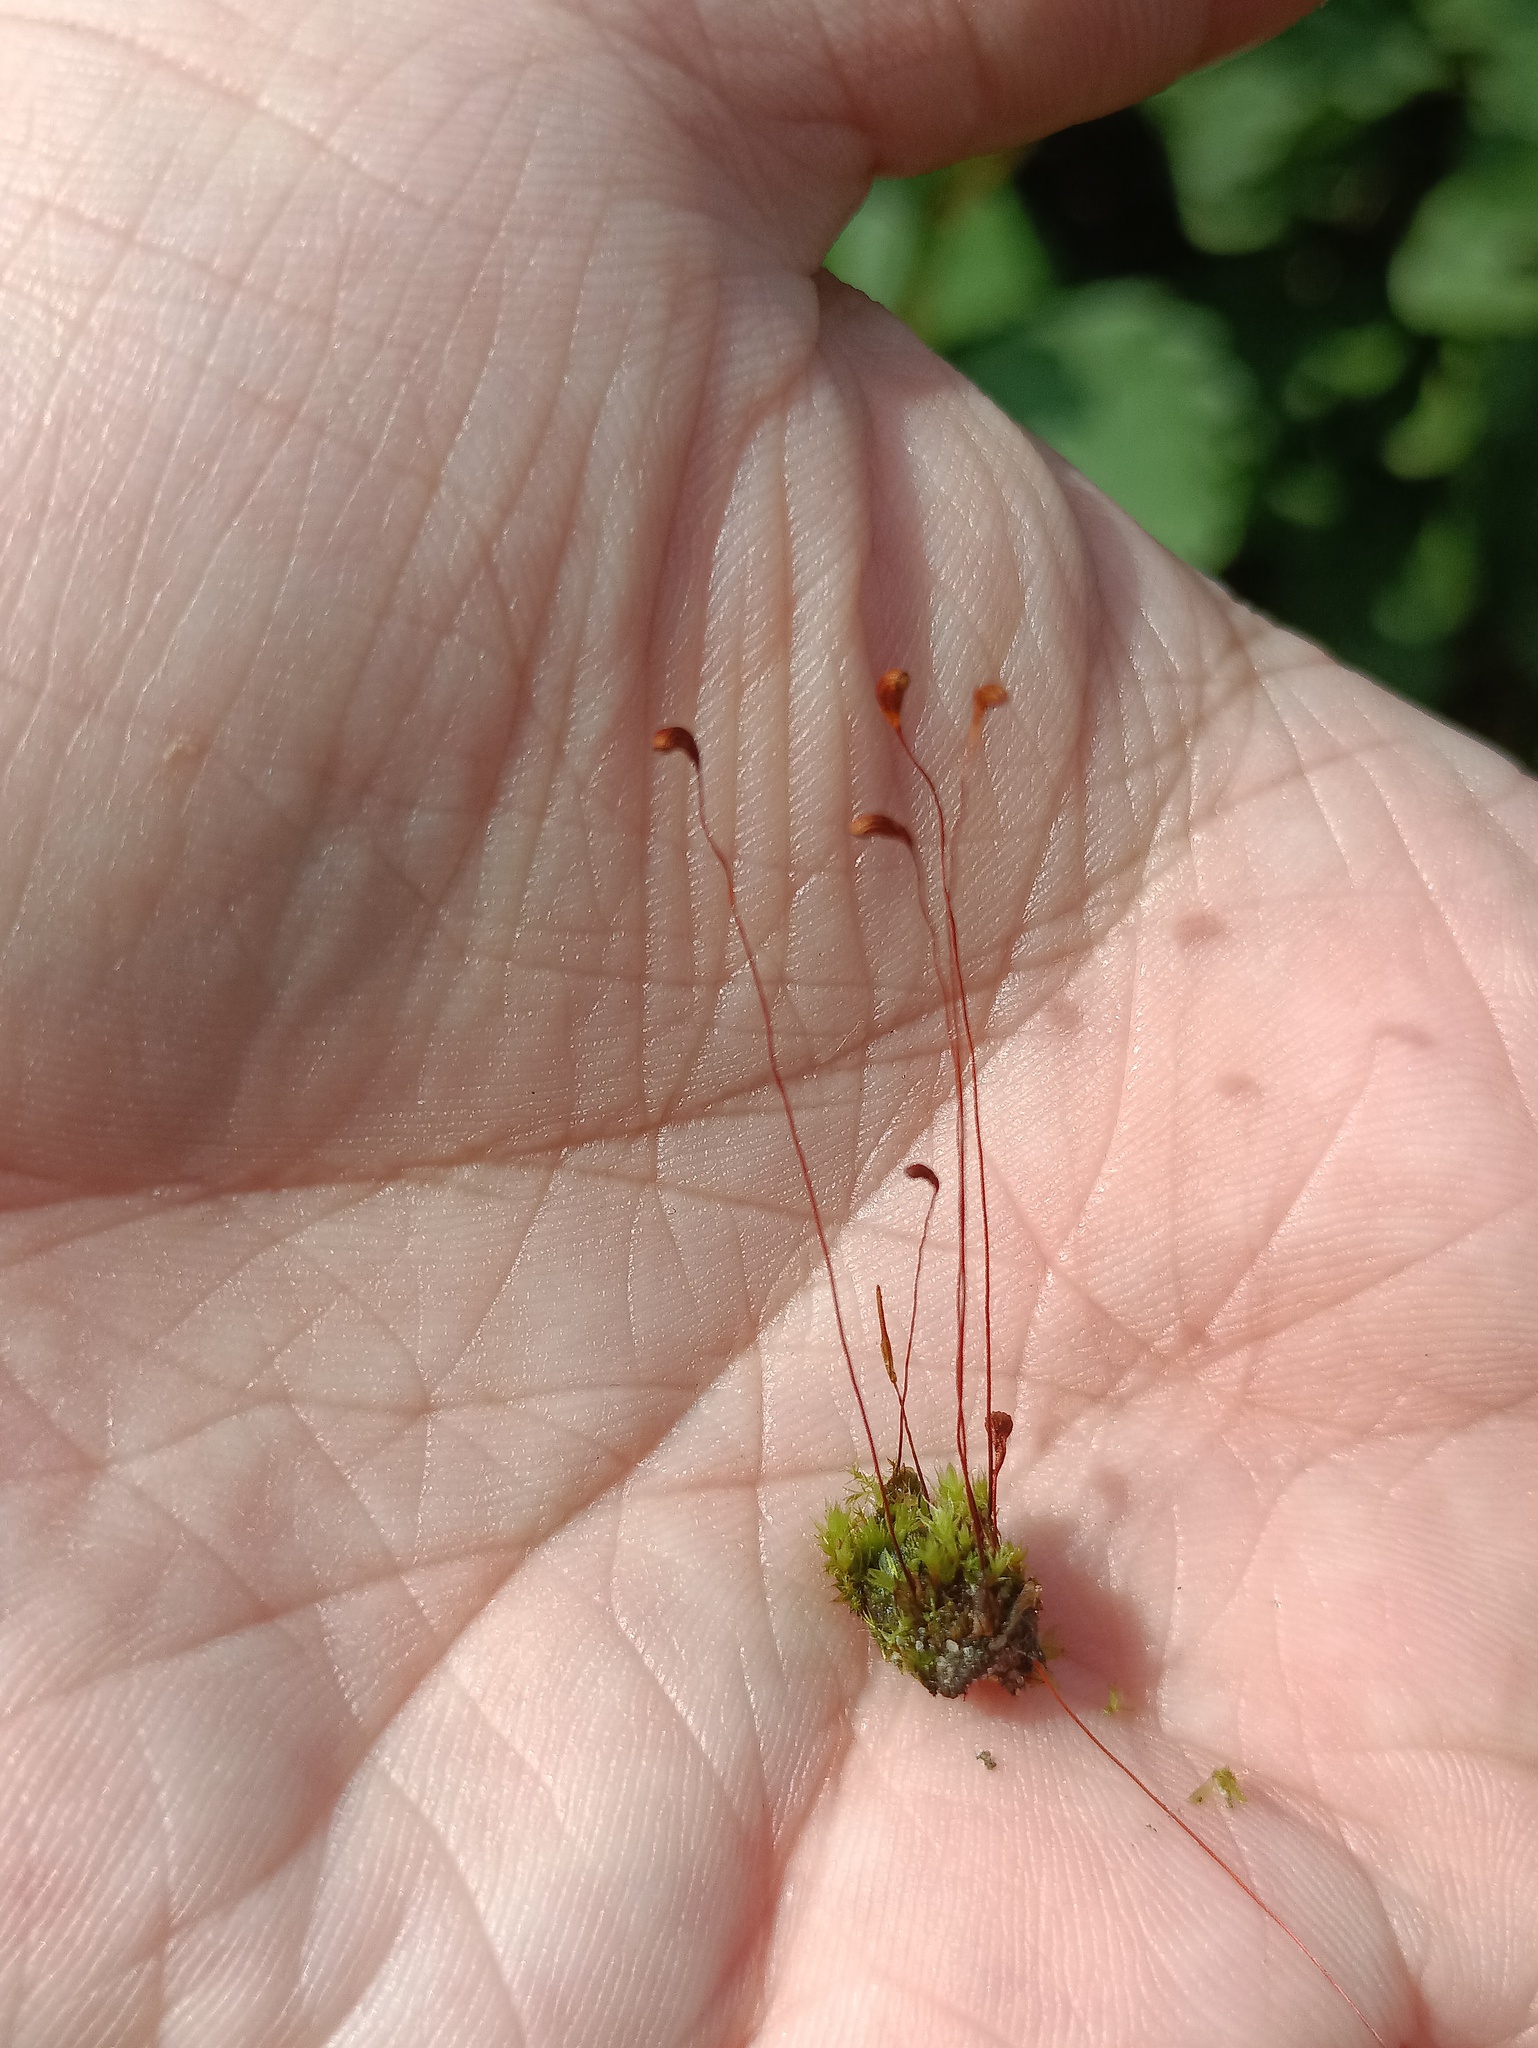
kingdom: Plantae
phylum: Bryophyta
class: Bryopsida
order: Funariales
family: Funariaceae
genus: Funaria
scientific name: Funaria hygrometrica
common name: Common cord moss
